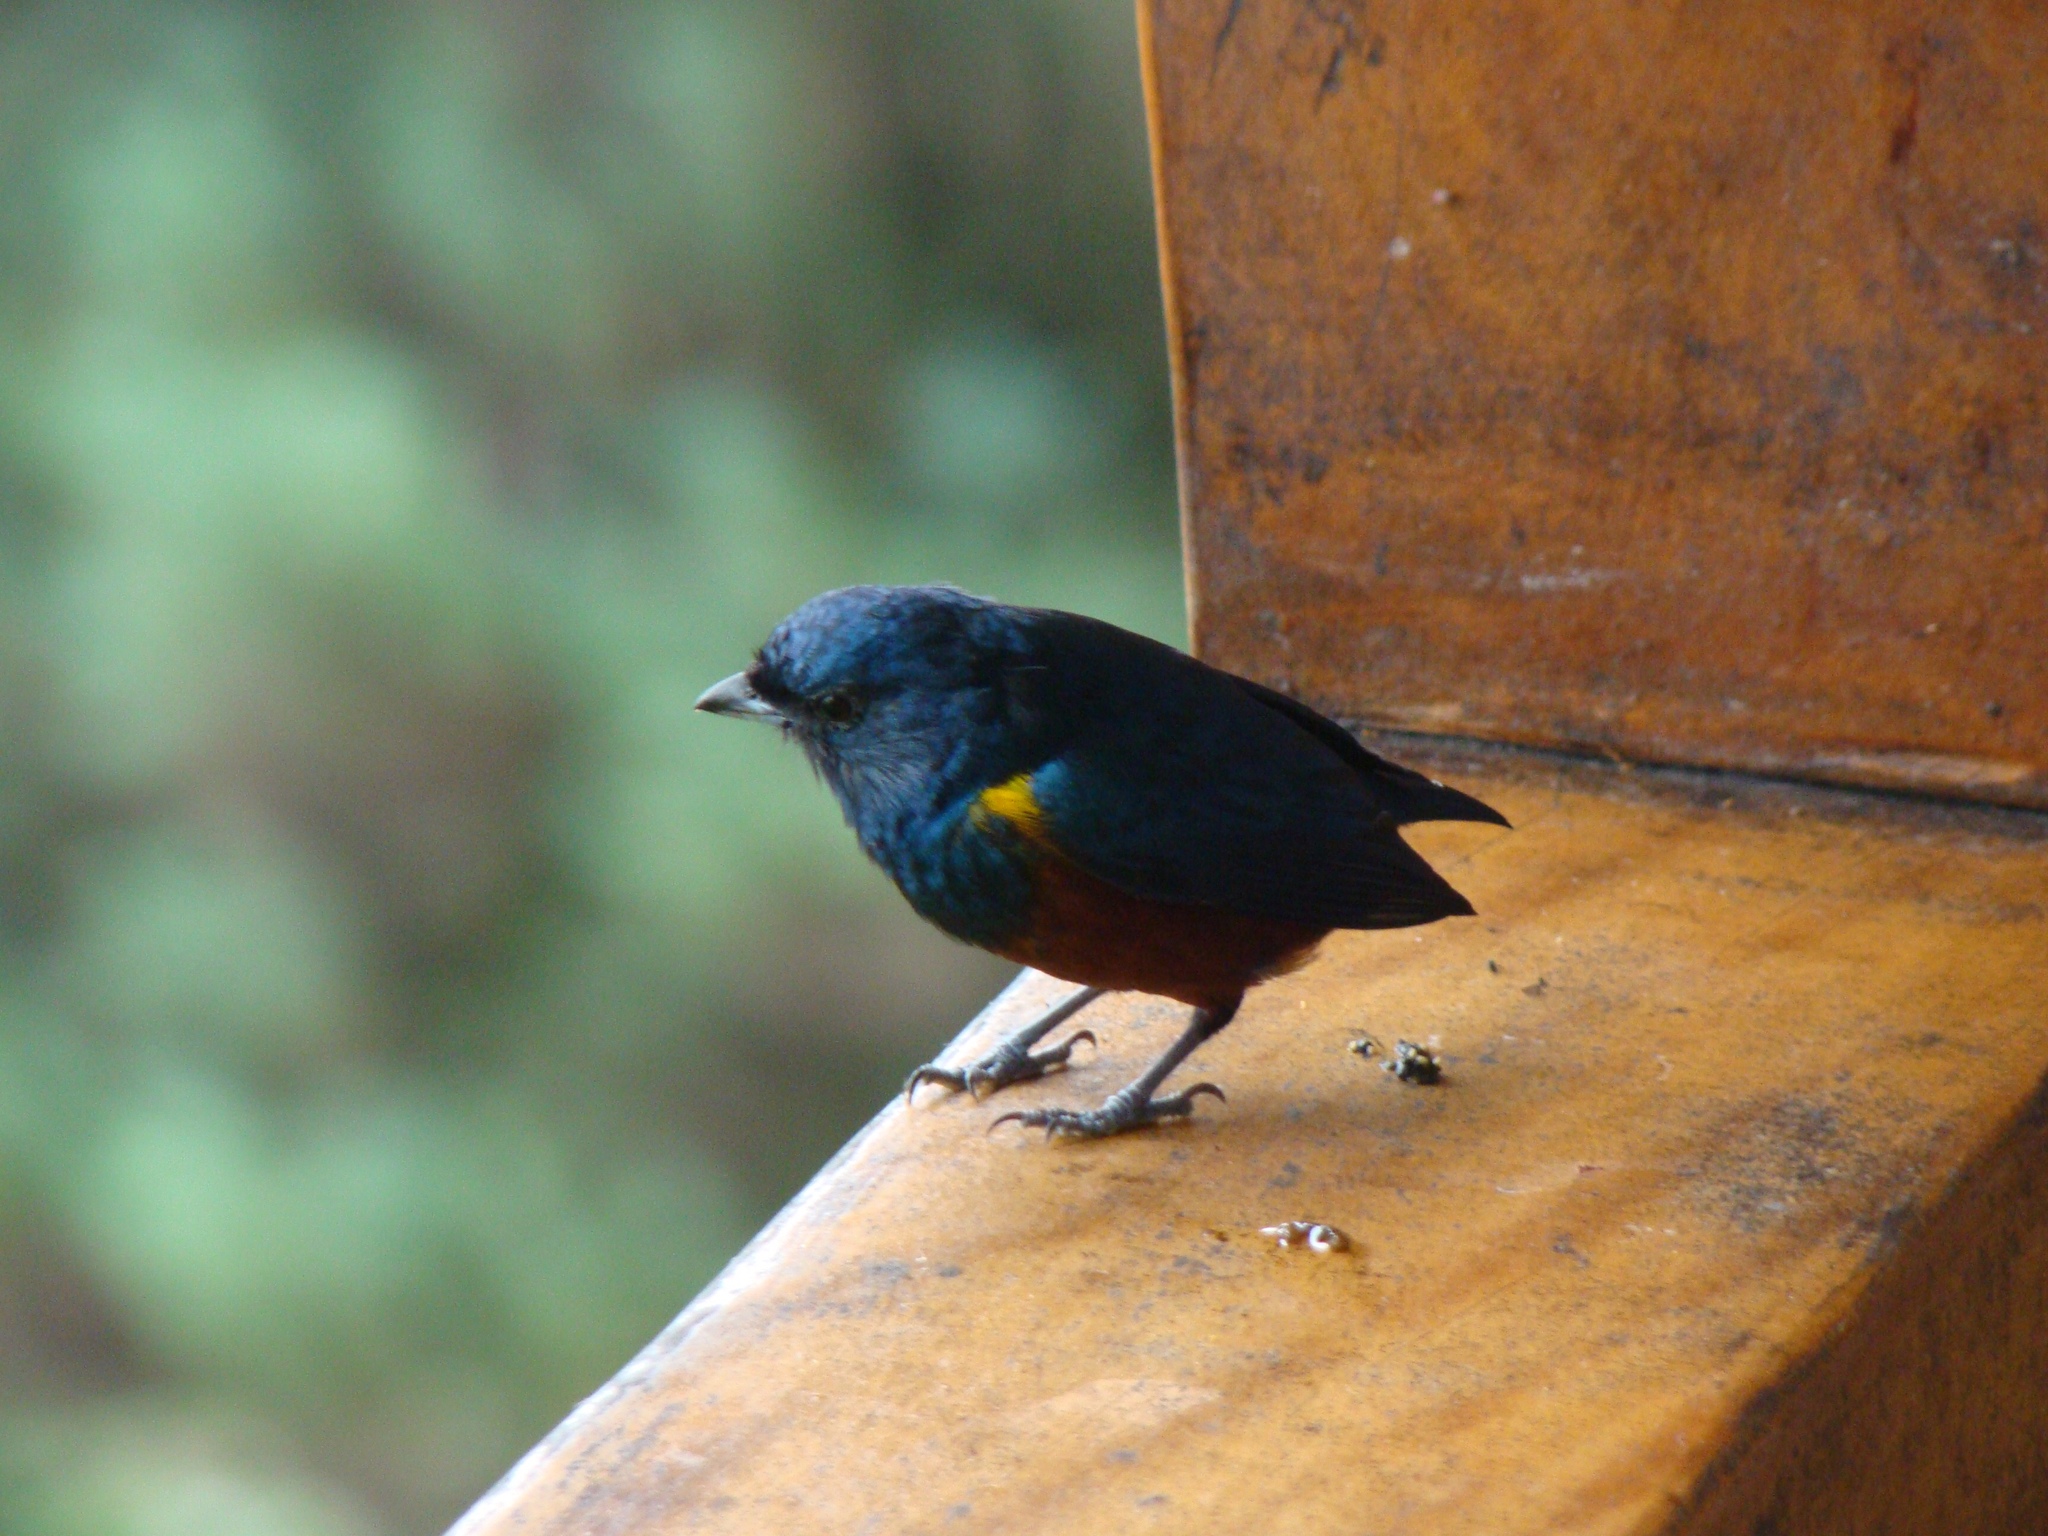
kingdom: Animalia
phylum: Chordata
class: Aves
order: Passeriformes
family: Fringillidae
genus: Euphonia
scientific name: Euphonia pectoralis
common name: Chestnut-bellied euphonia
